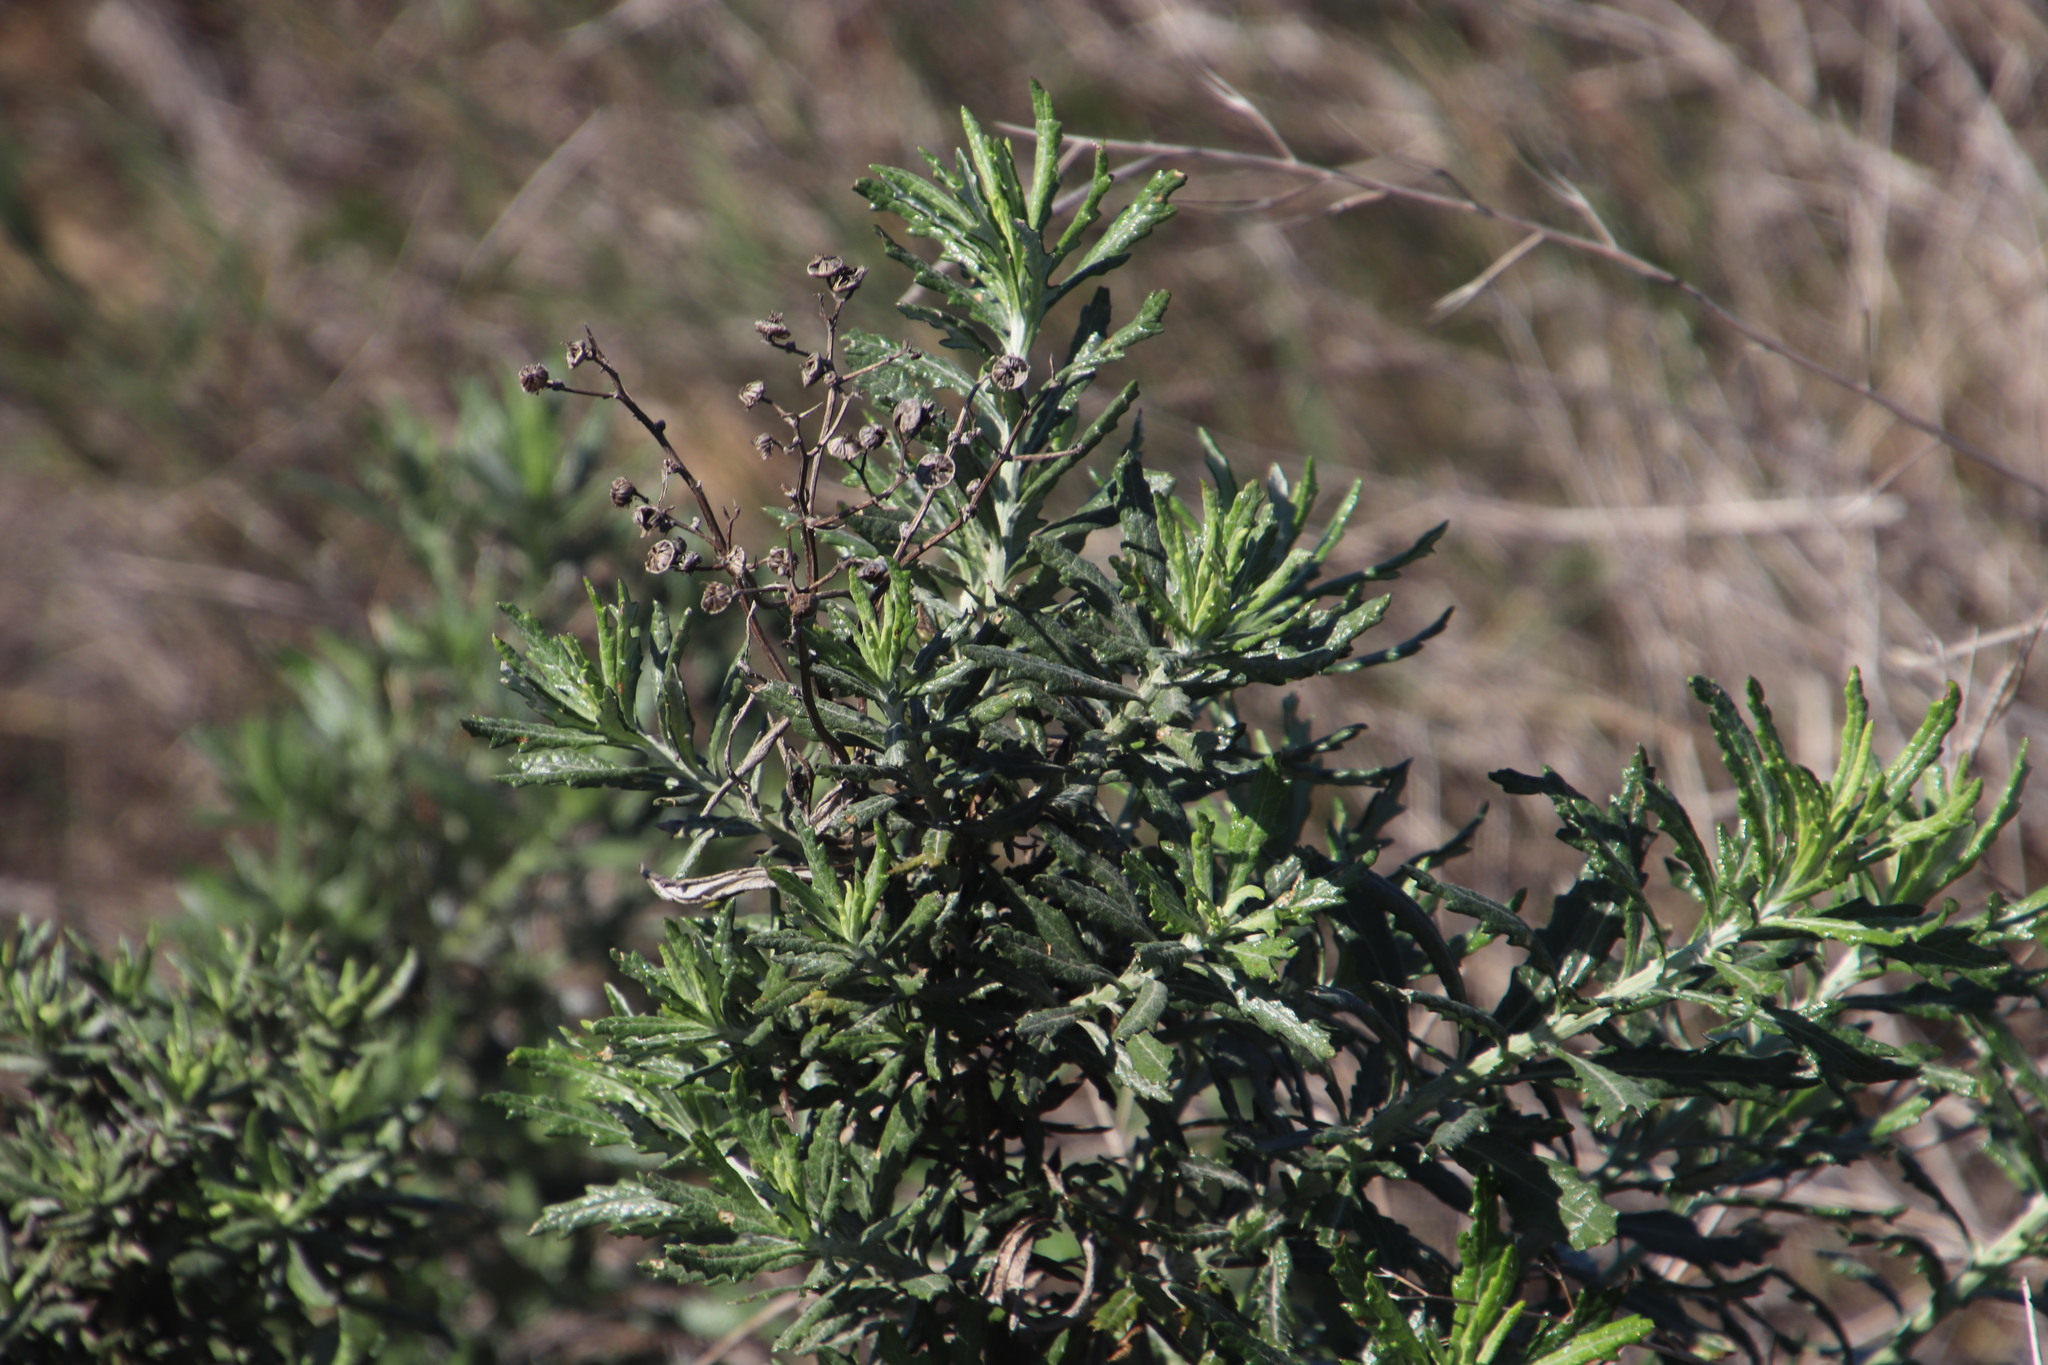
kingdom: Plantae
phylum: Tracheophyta
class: Magnoliopsida
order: Asterales
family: Asteraceae
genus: Senecio
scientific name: Senecio pterophorus
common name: Shoddy ragwort
